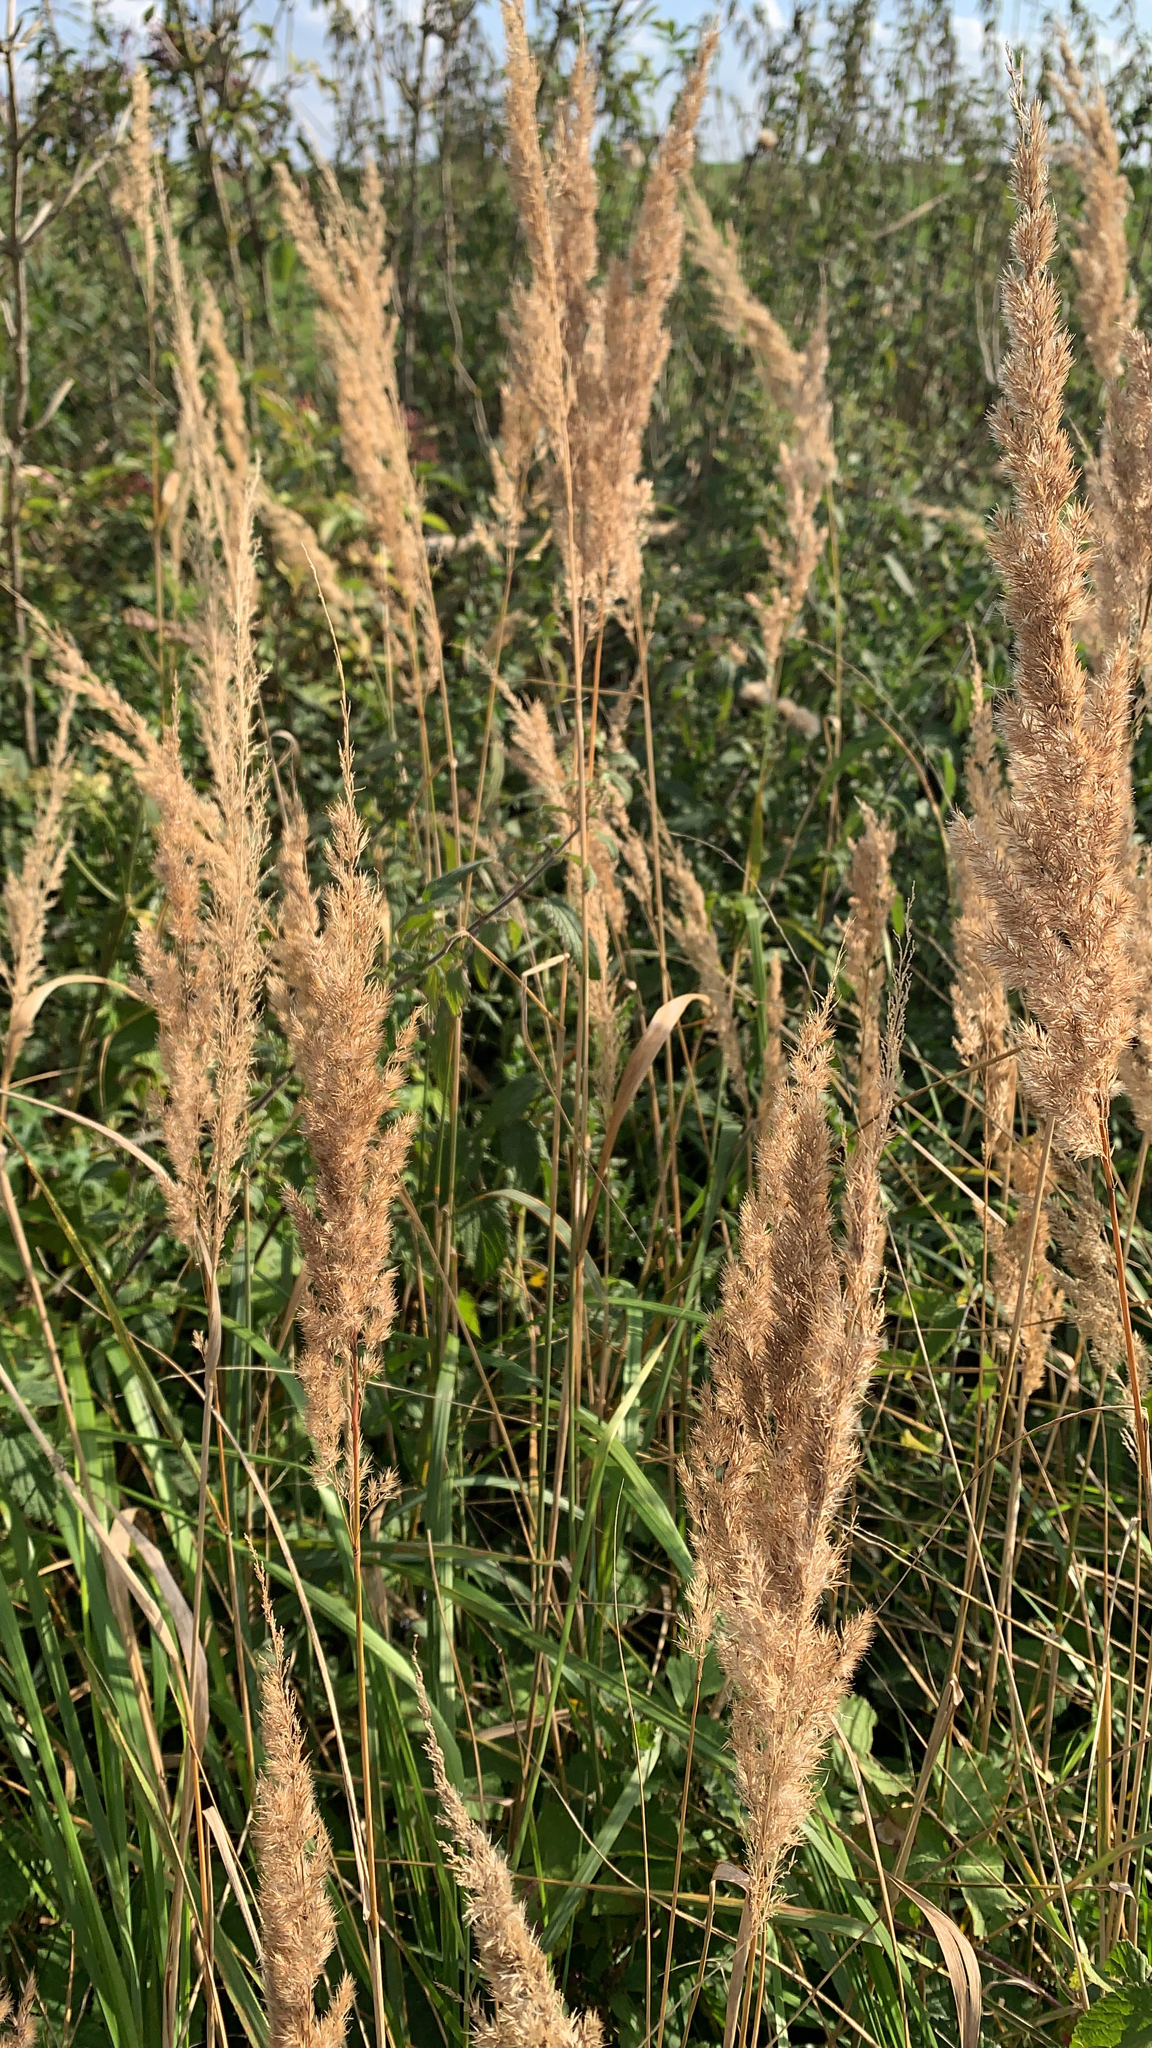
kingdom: Plantae
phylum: Tracheophyta
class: Liliopsida
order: Poales
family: Poaceae
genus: Calamagrostis
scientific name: Calamagrostis epigejos
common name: Wood small-reed
